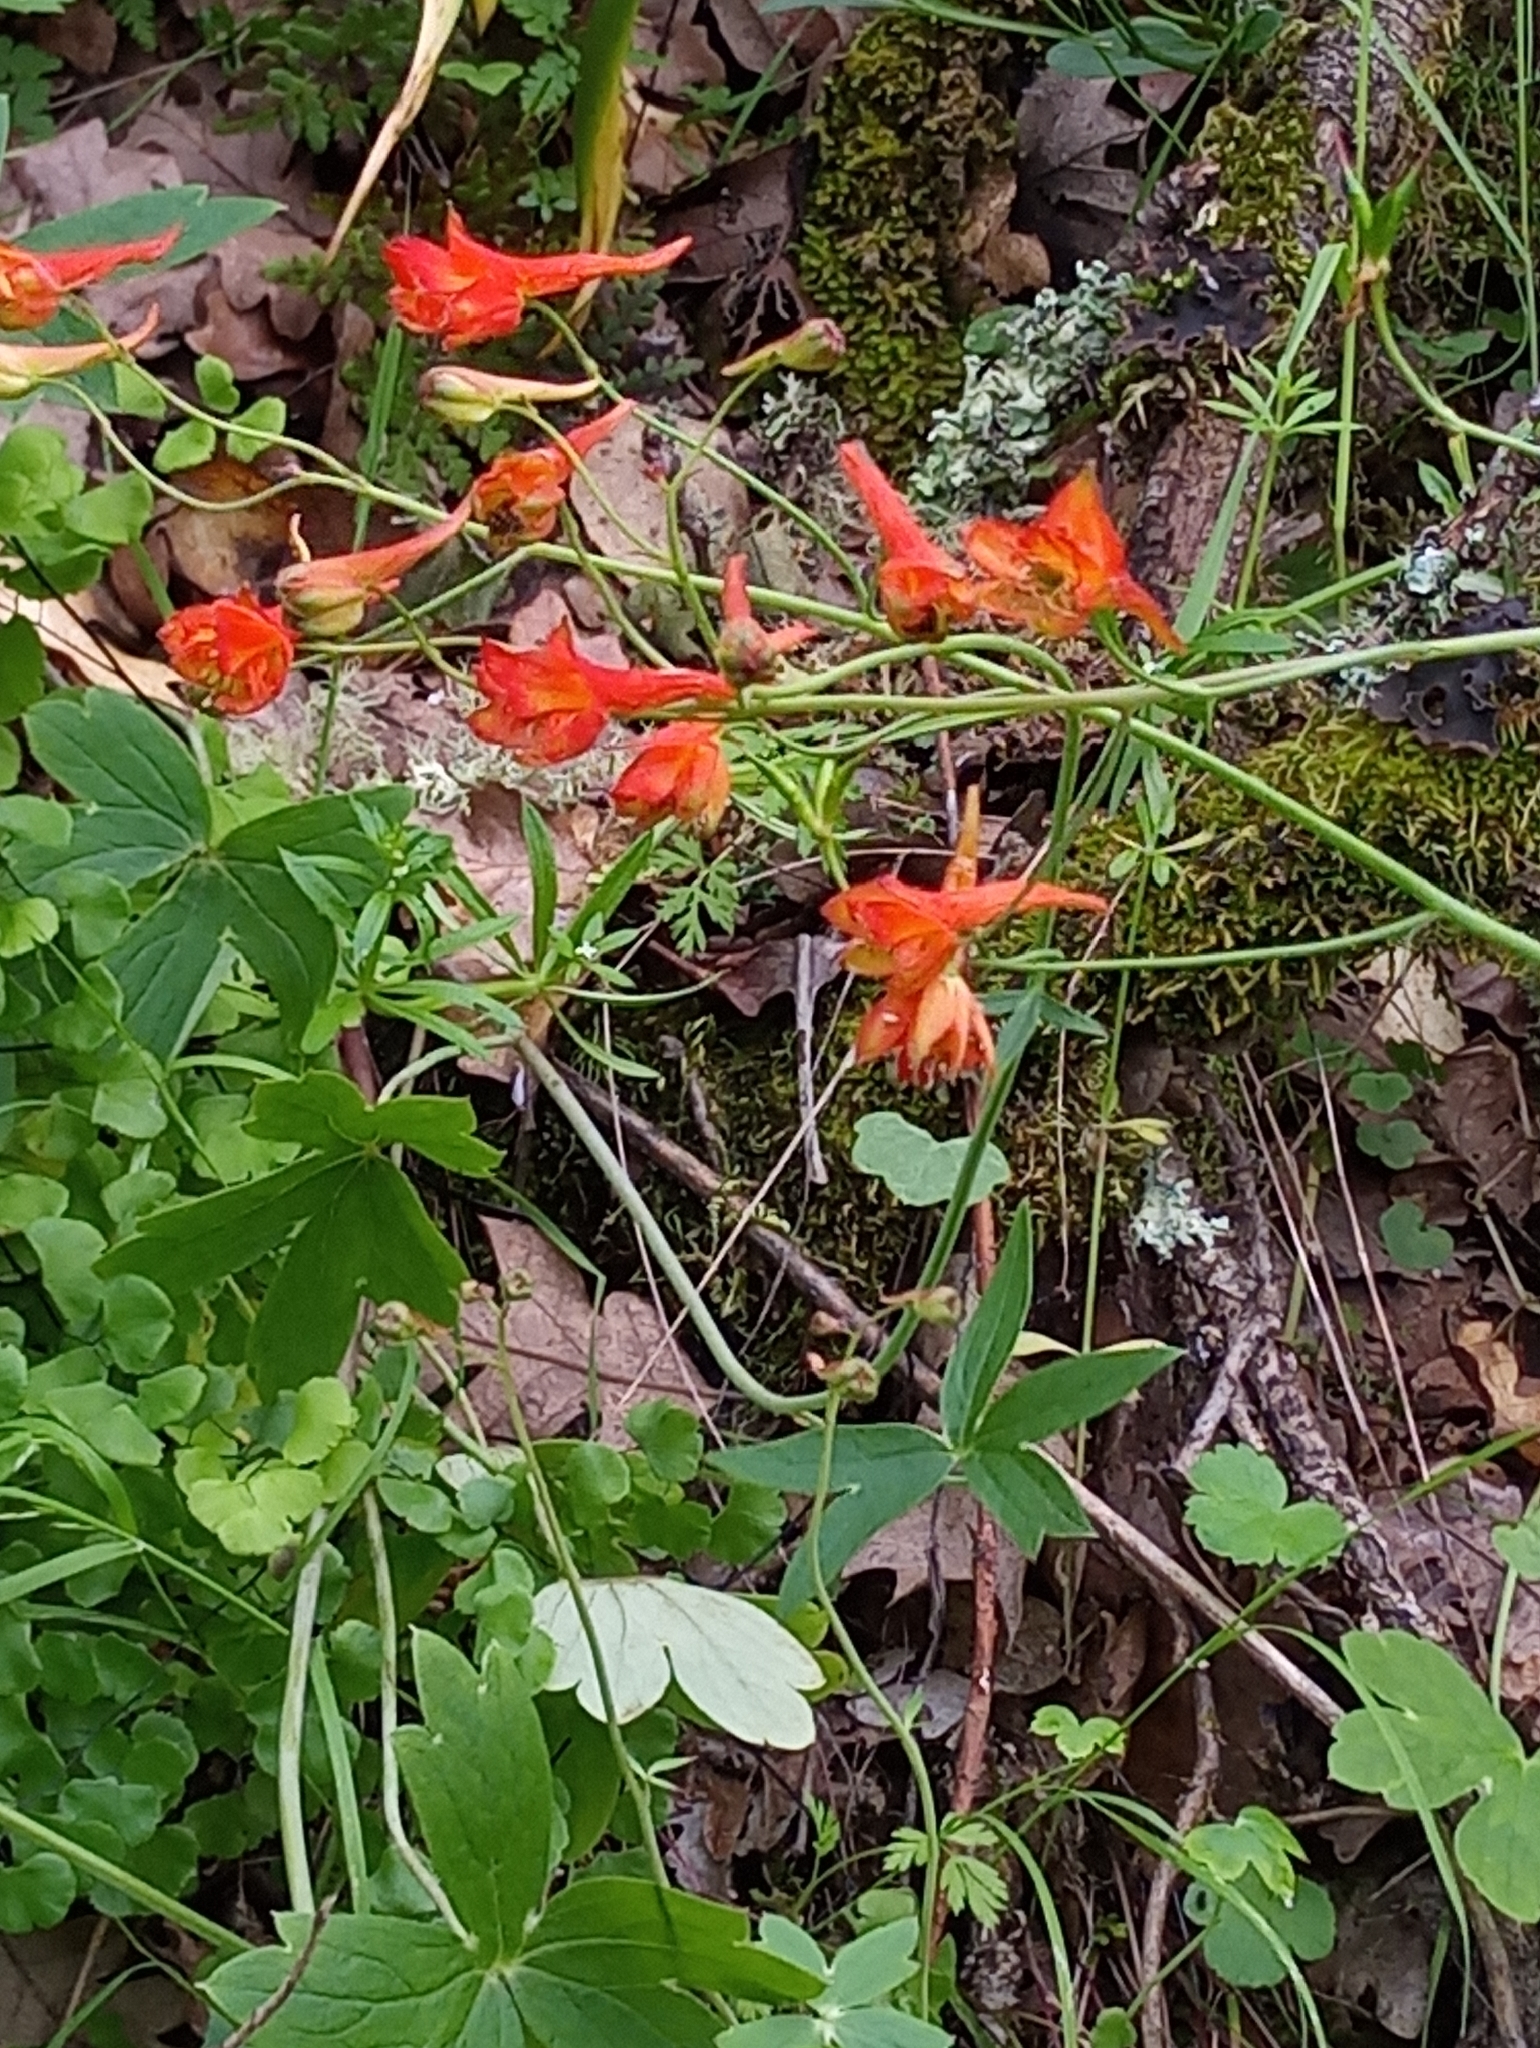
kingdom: Plantae
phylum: Tracheophyta
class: Magnoliopsida
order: Ranunculales
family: Ranunculaceae
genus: Delphinium
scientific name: Delphinium nudicaule
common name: Red larkspur
